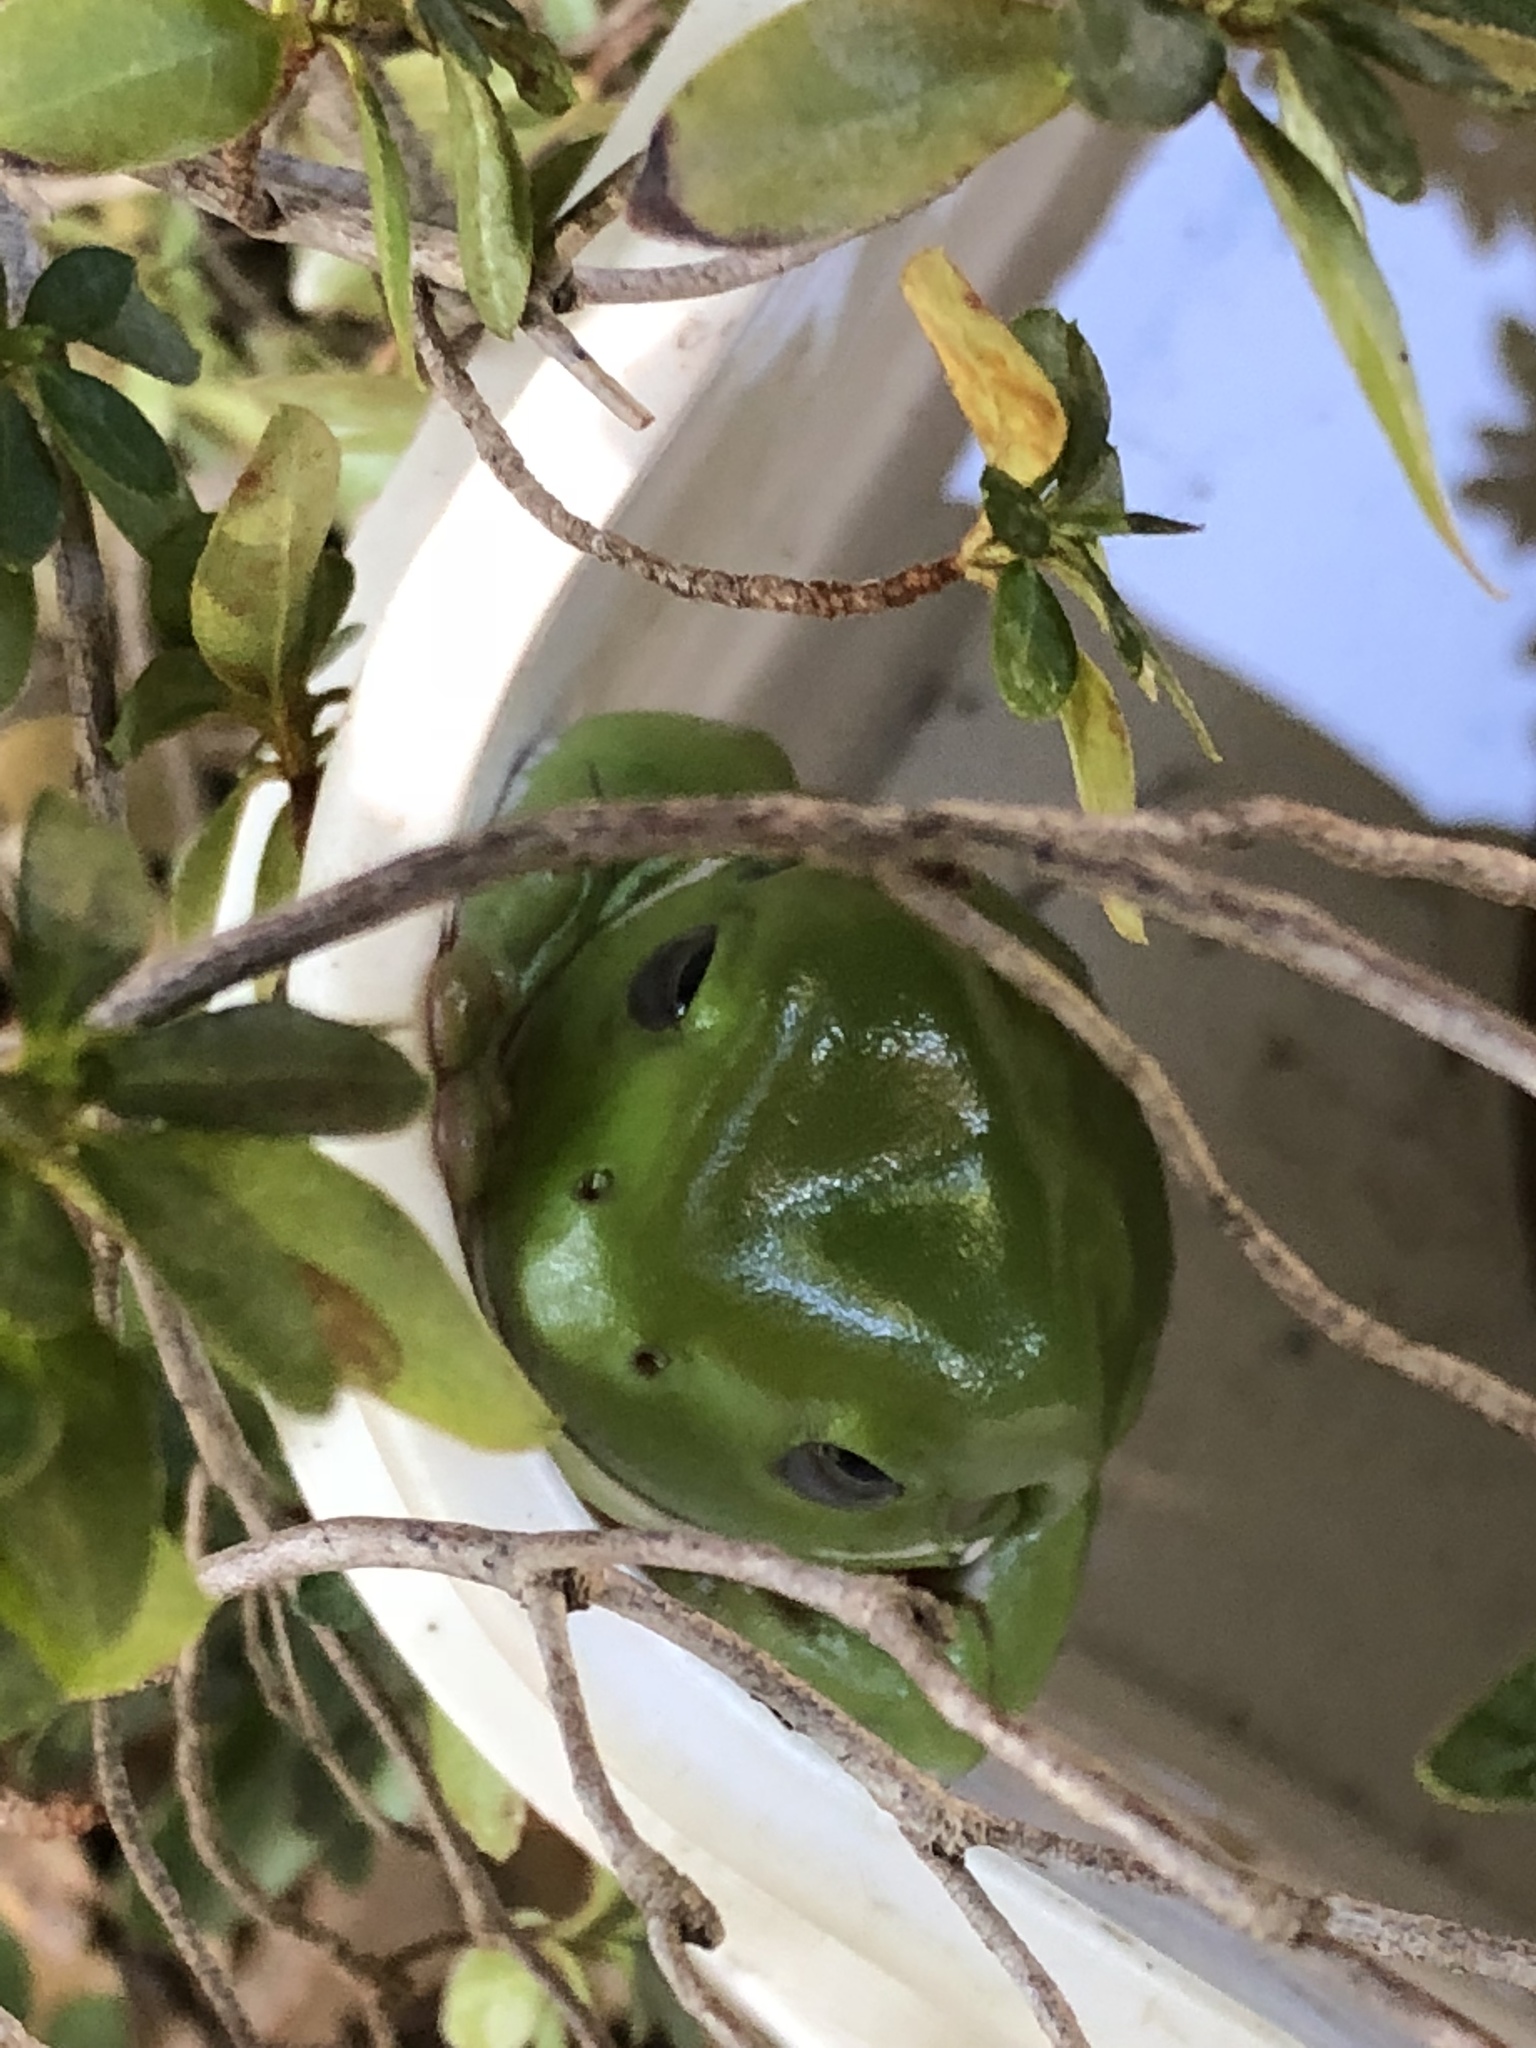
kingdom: Animalia
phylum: Chordata
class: Amphibia
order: Anura
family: Pelodryadidae
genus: Ranoidea
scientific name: Ranoidea caerulea
